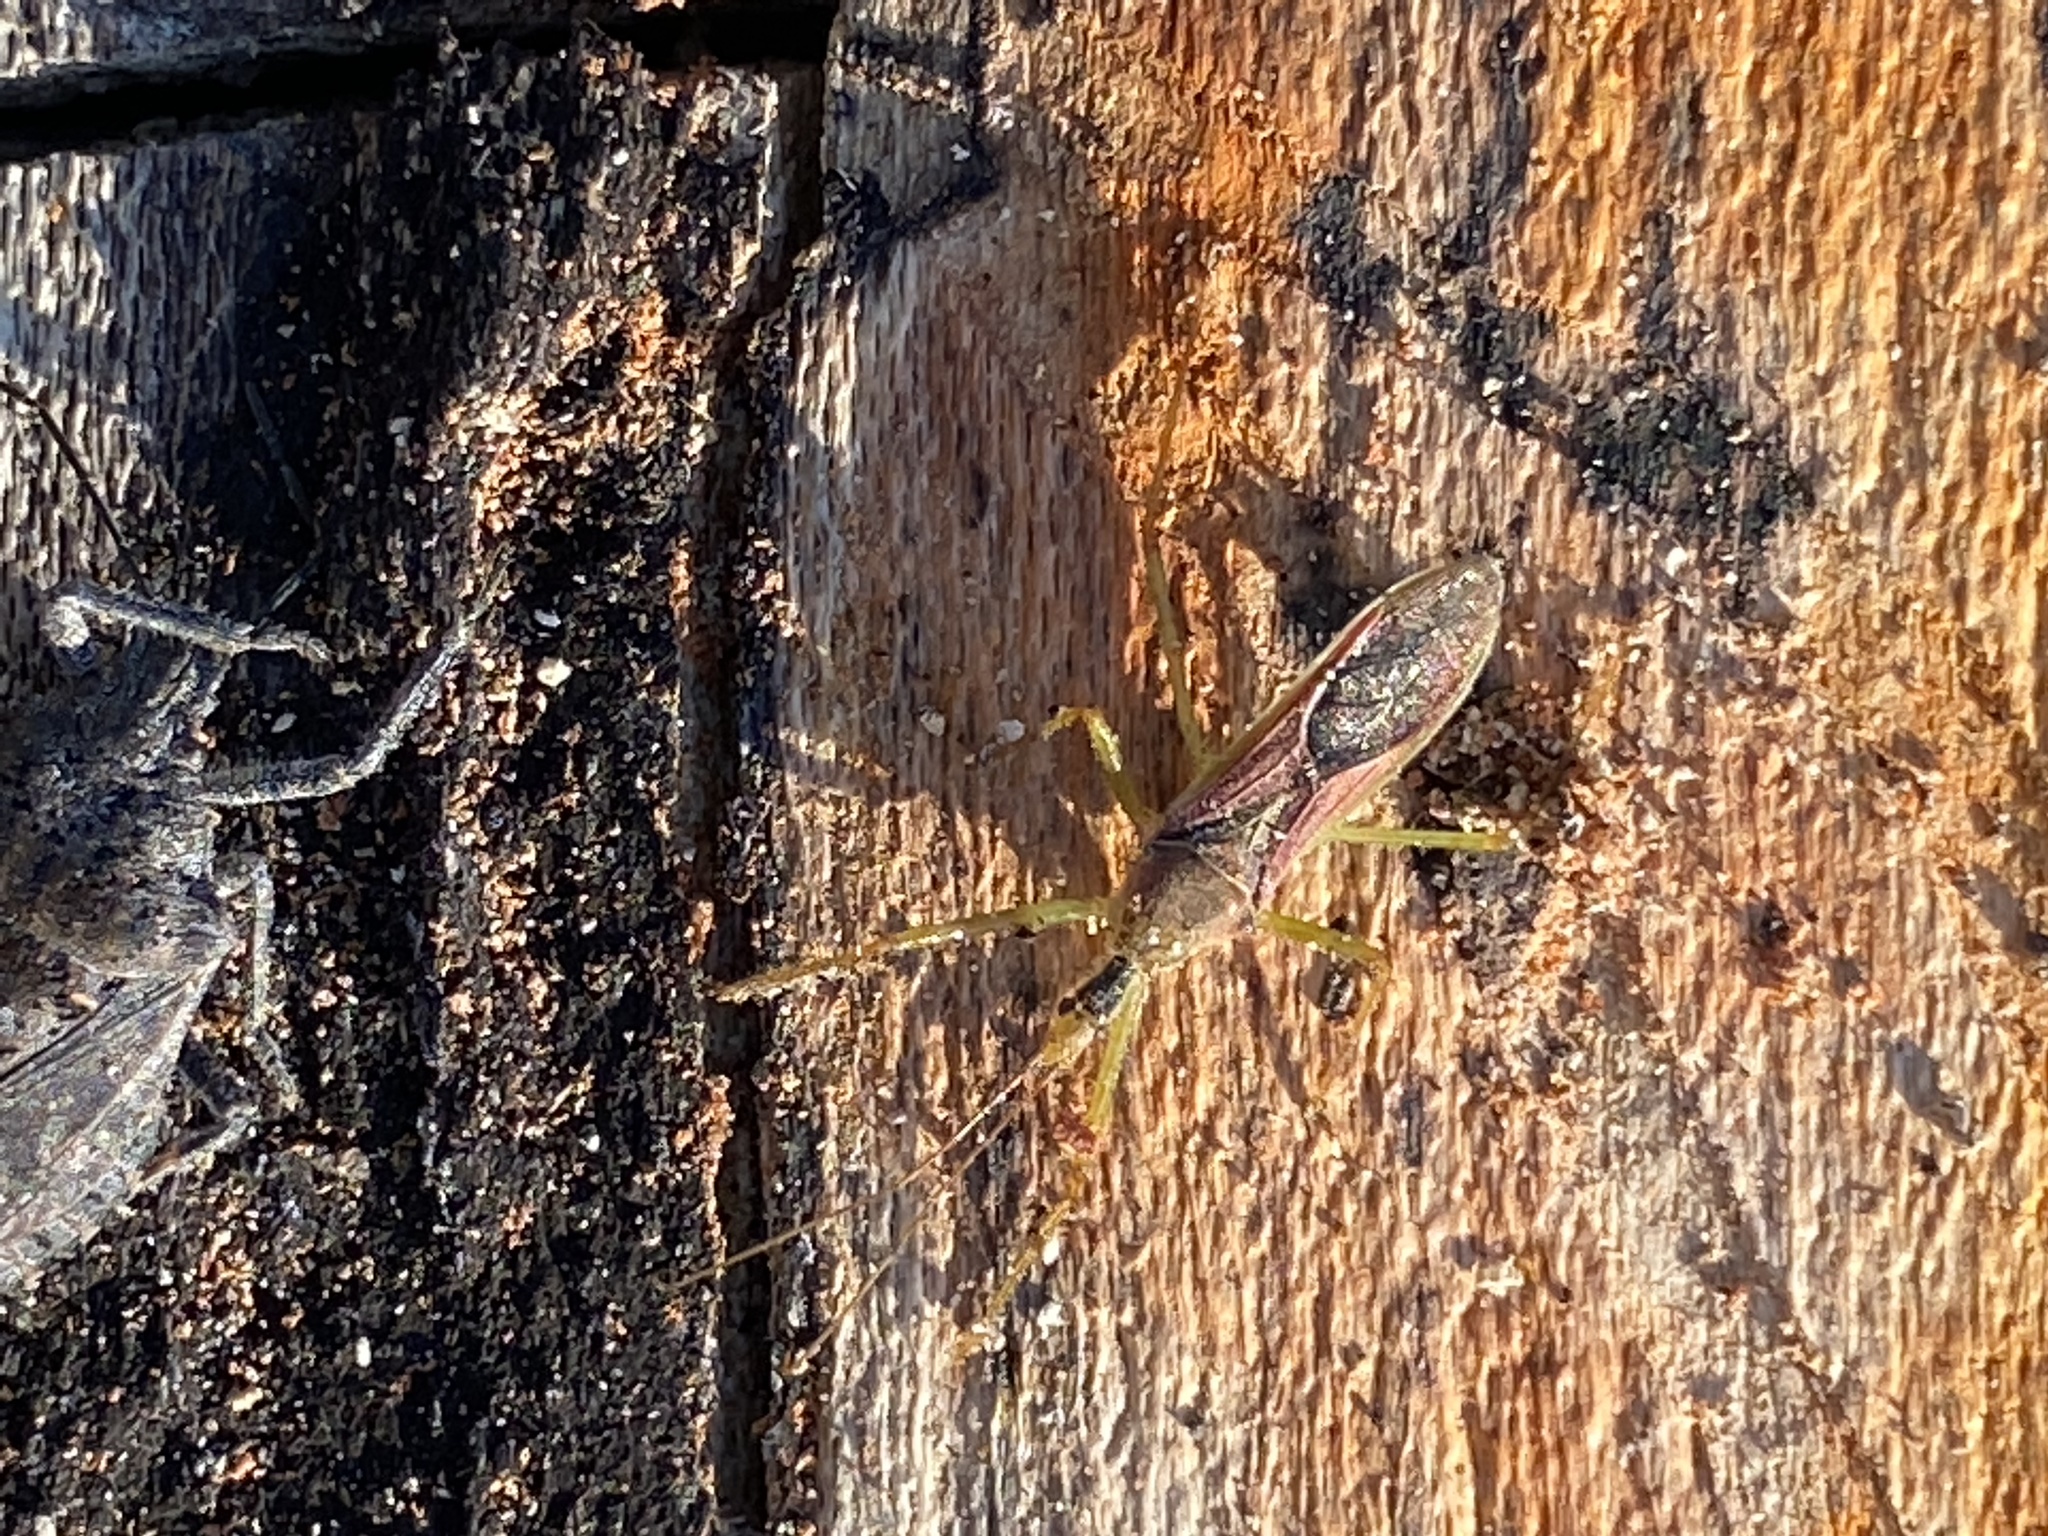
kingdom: Animalia
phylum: Arthropoda
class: Insecta
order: Hemiptera
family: Reduviidae
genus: Zelus
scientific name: Zelus renardii
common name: Assassin bug
